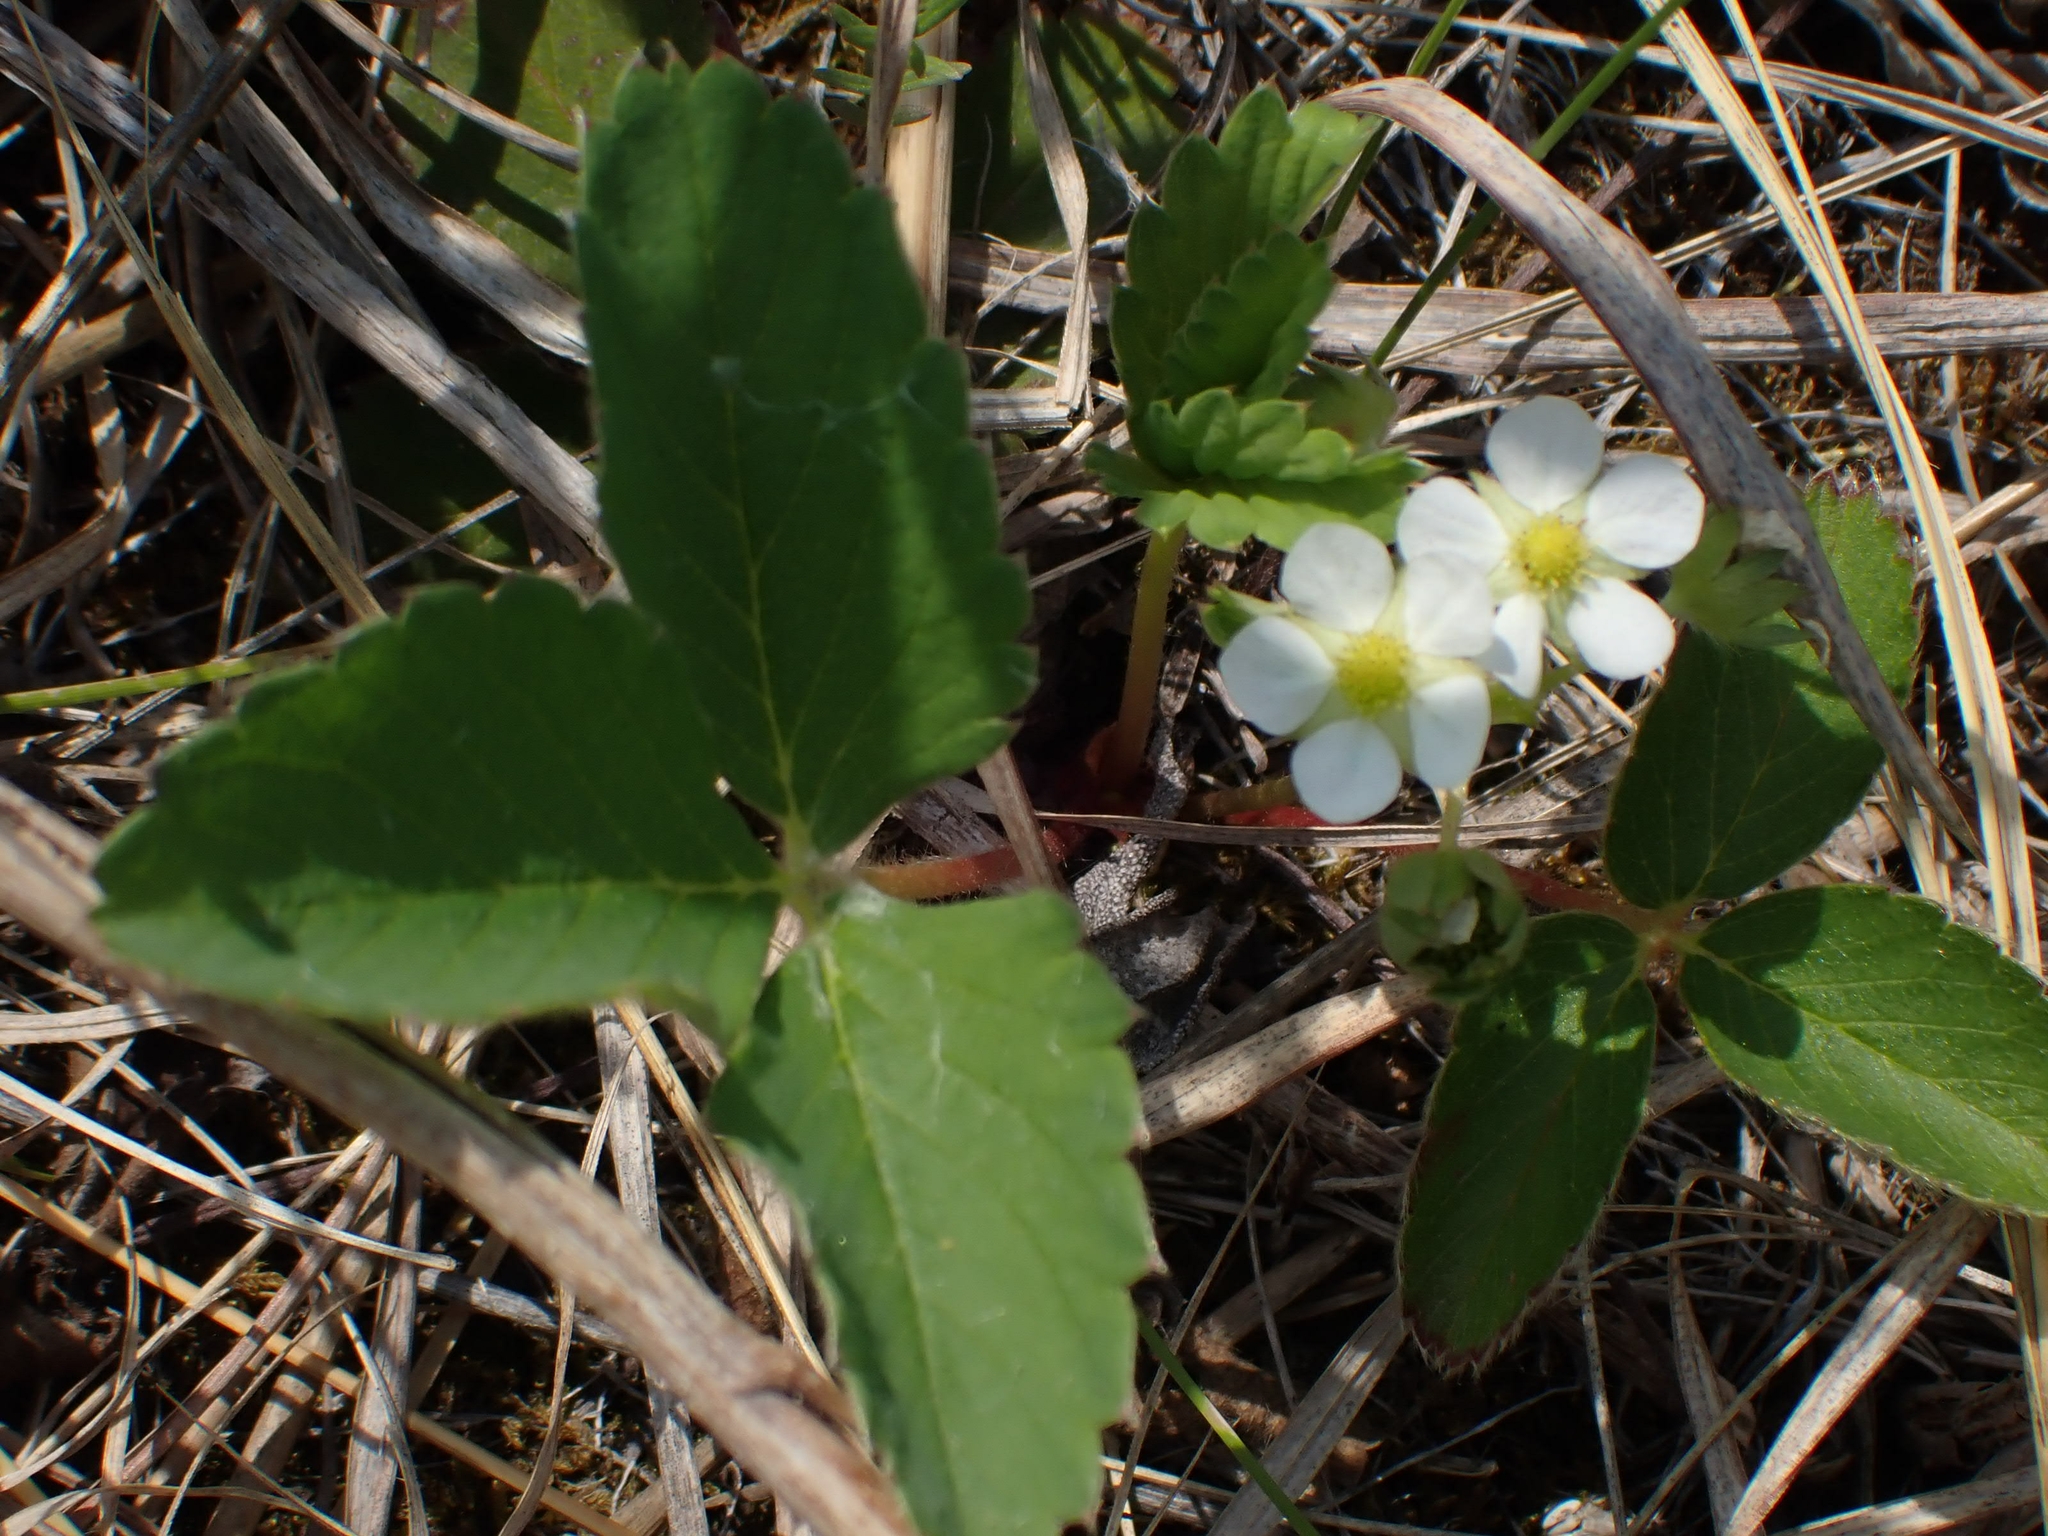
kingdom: Plantae
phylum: Tracheophyta
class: Magnoliopsida
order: Rosales
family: Rosaceae
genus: Fragaria
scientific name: Fragaria virginiana
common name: Thickleaved wild strawberry
